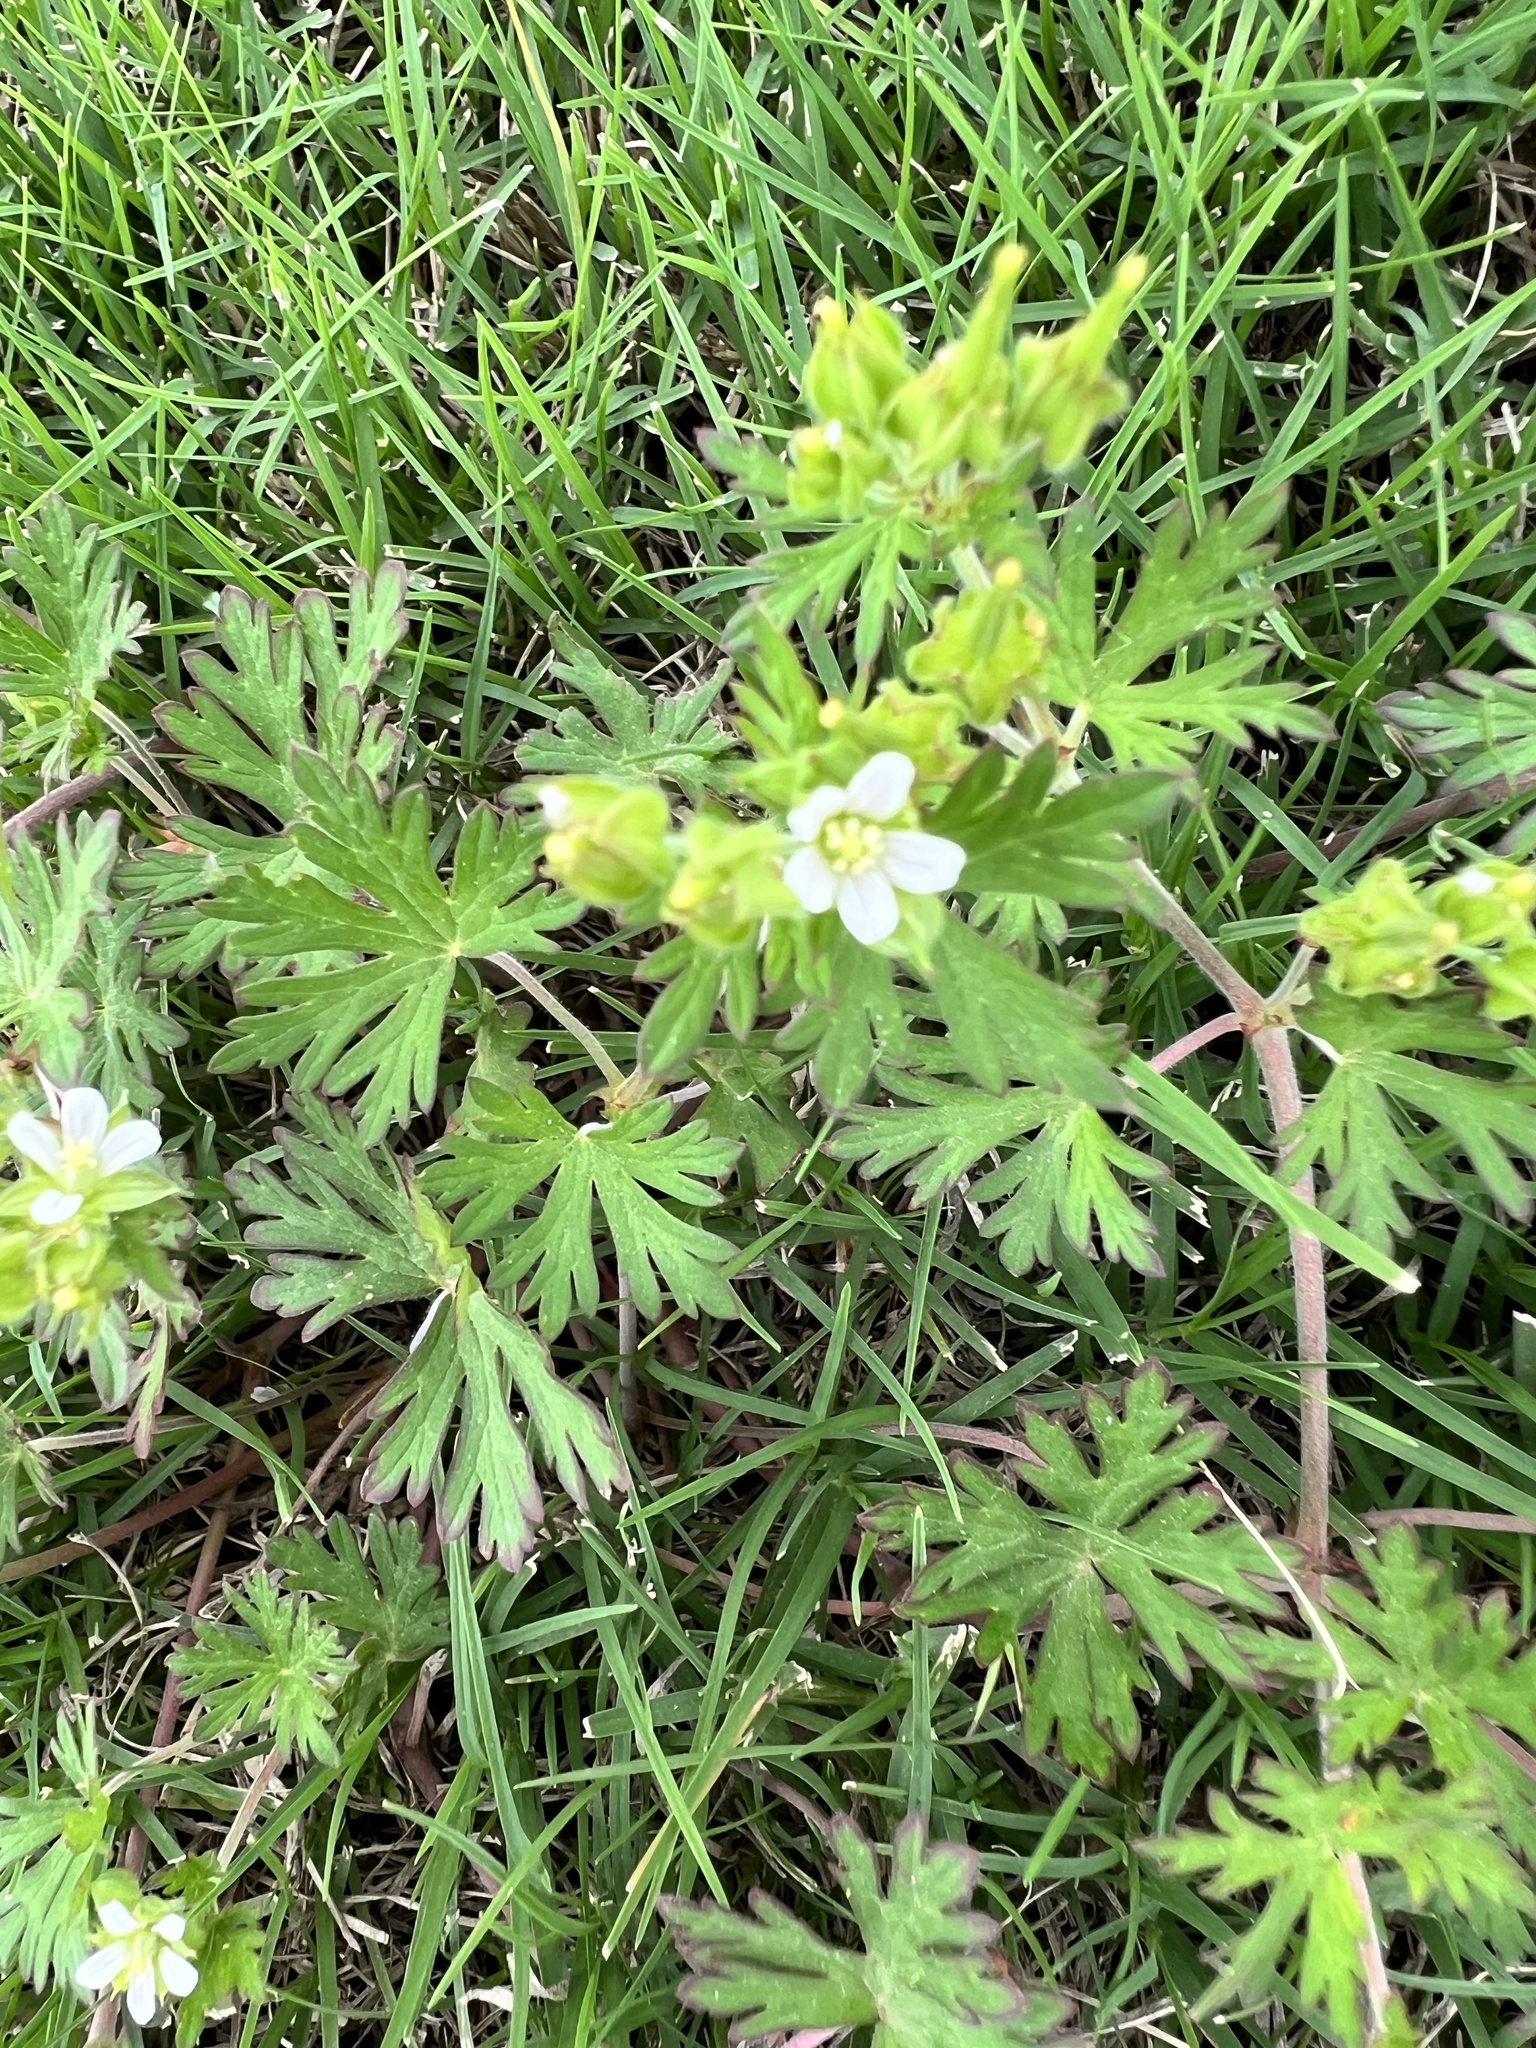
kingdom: Plantae
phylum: Tracheophyta
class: Magnoliopsida
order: Geraniales
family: Geraniaceae
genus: Geranium
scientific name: Geranium carolinianum
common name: Carolina crane's-bill
